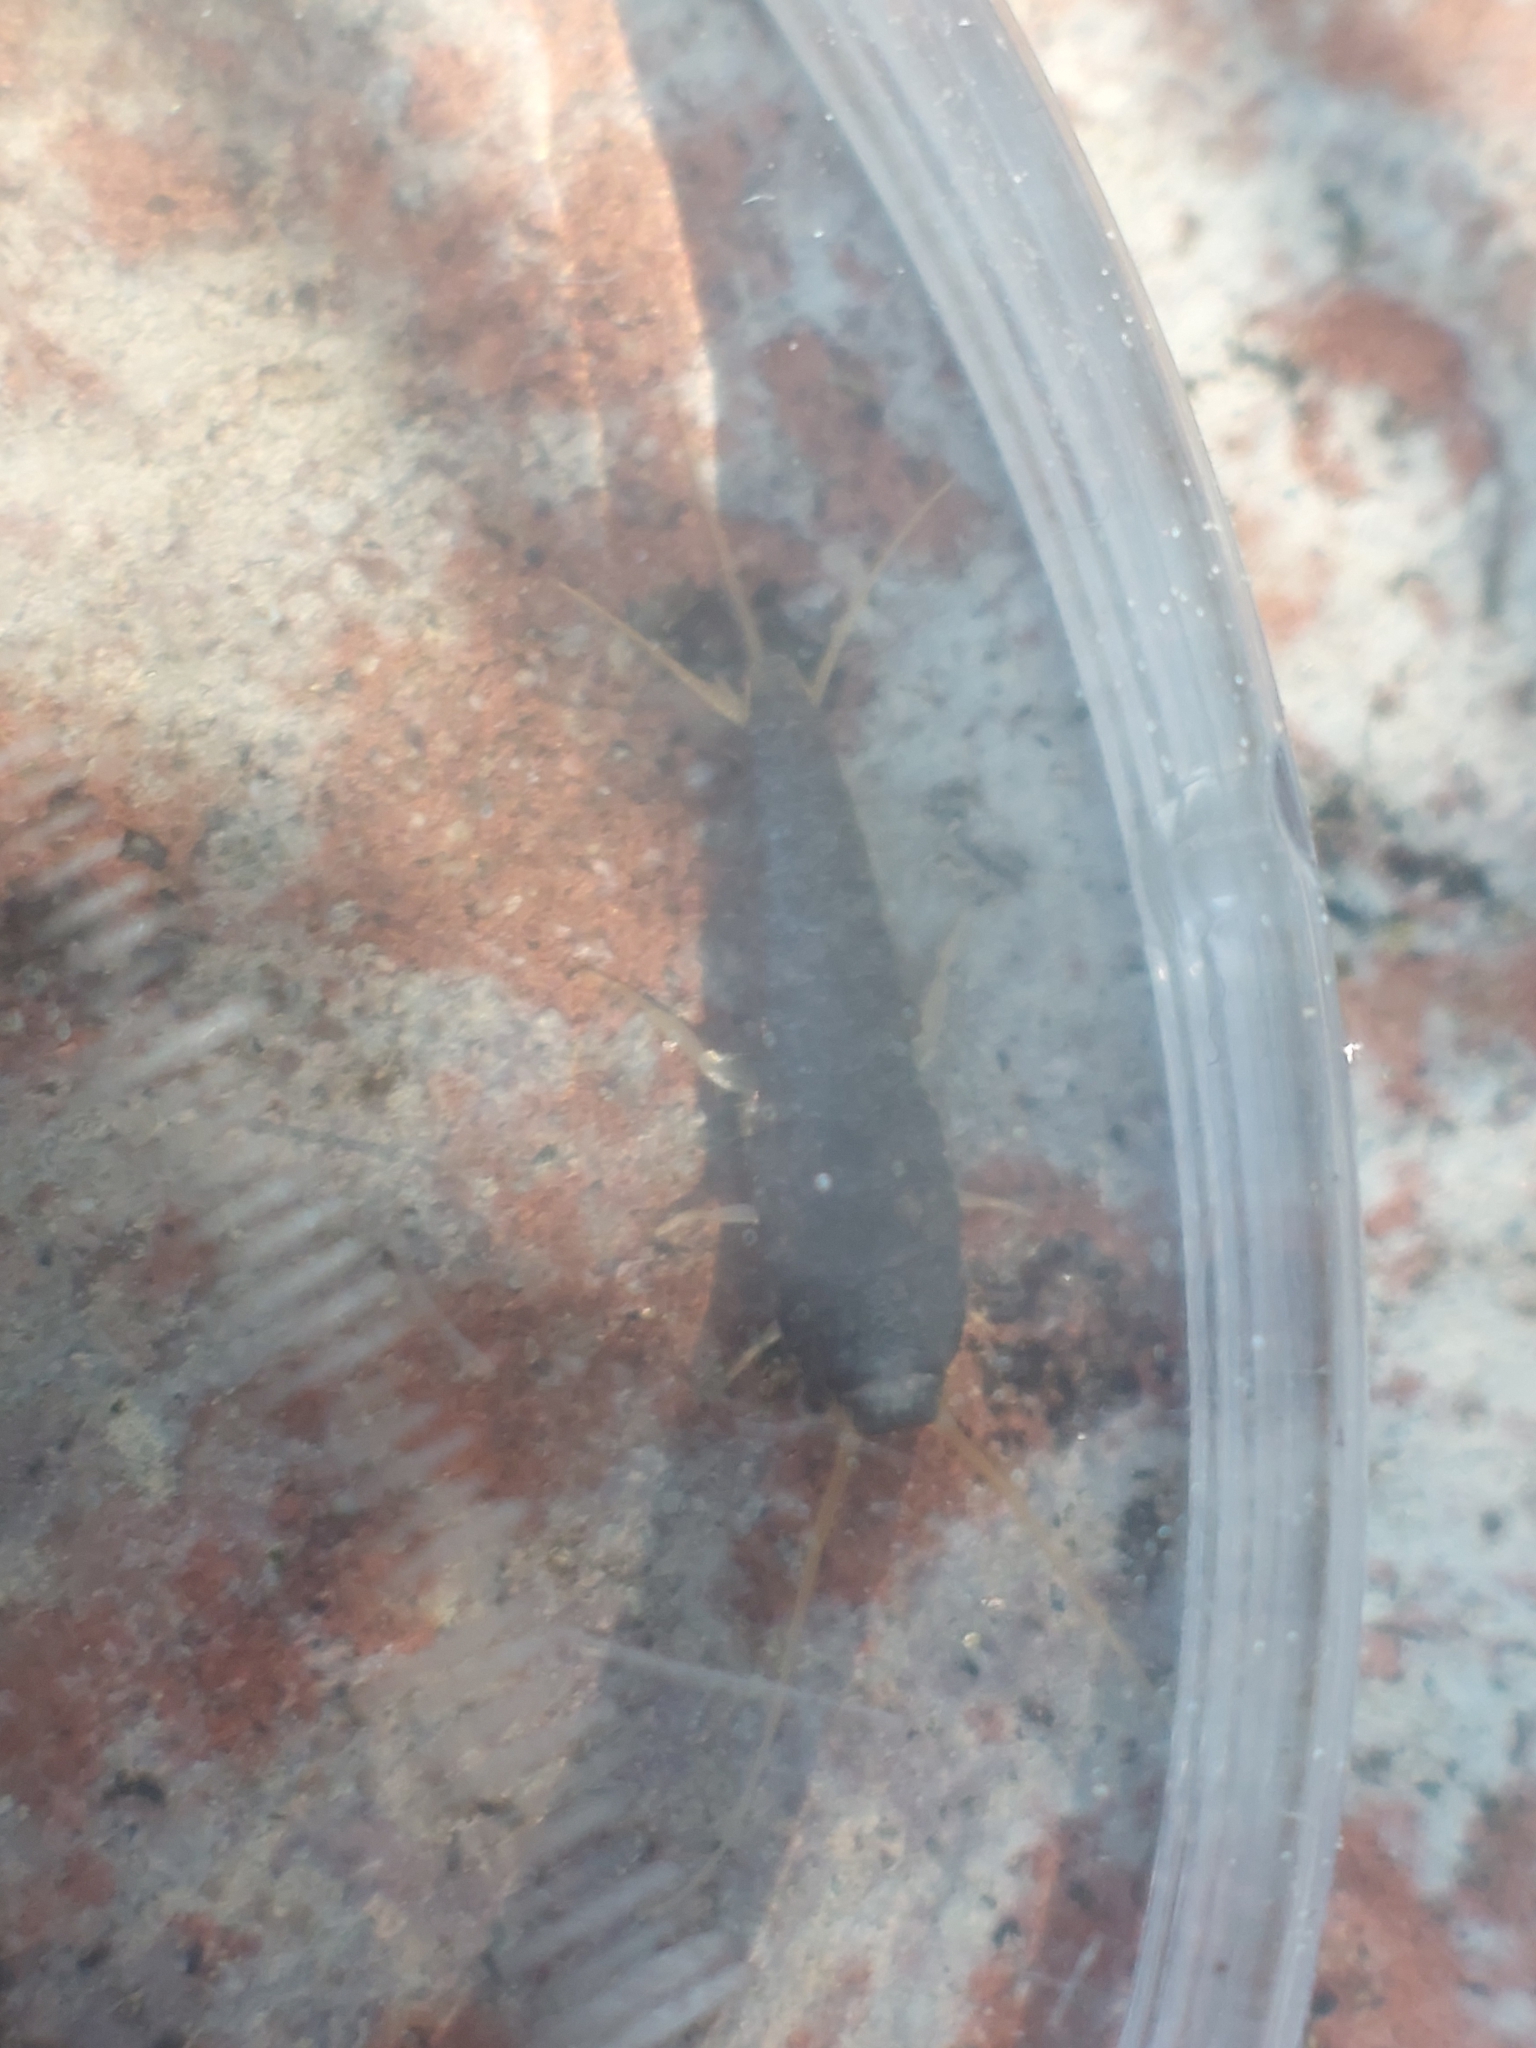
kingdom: Animalia
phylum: Arthropoda
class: Insecta
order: Zygentoma
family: Lepismatidae
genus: Lepisma
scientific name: Lepisma saccharinum
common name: Silverfish
